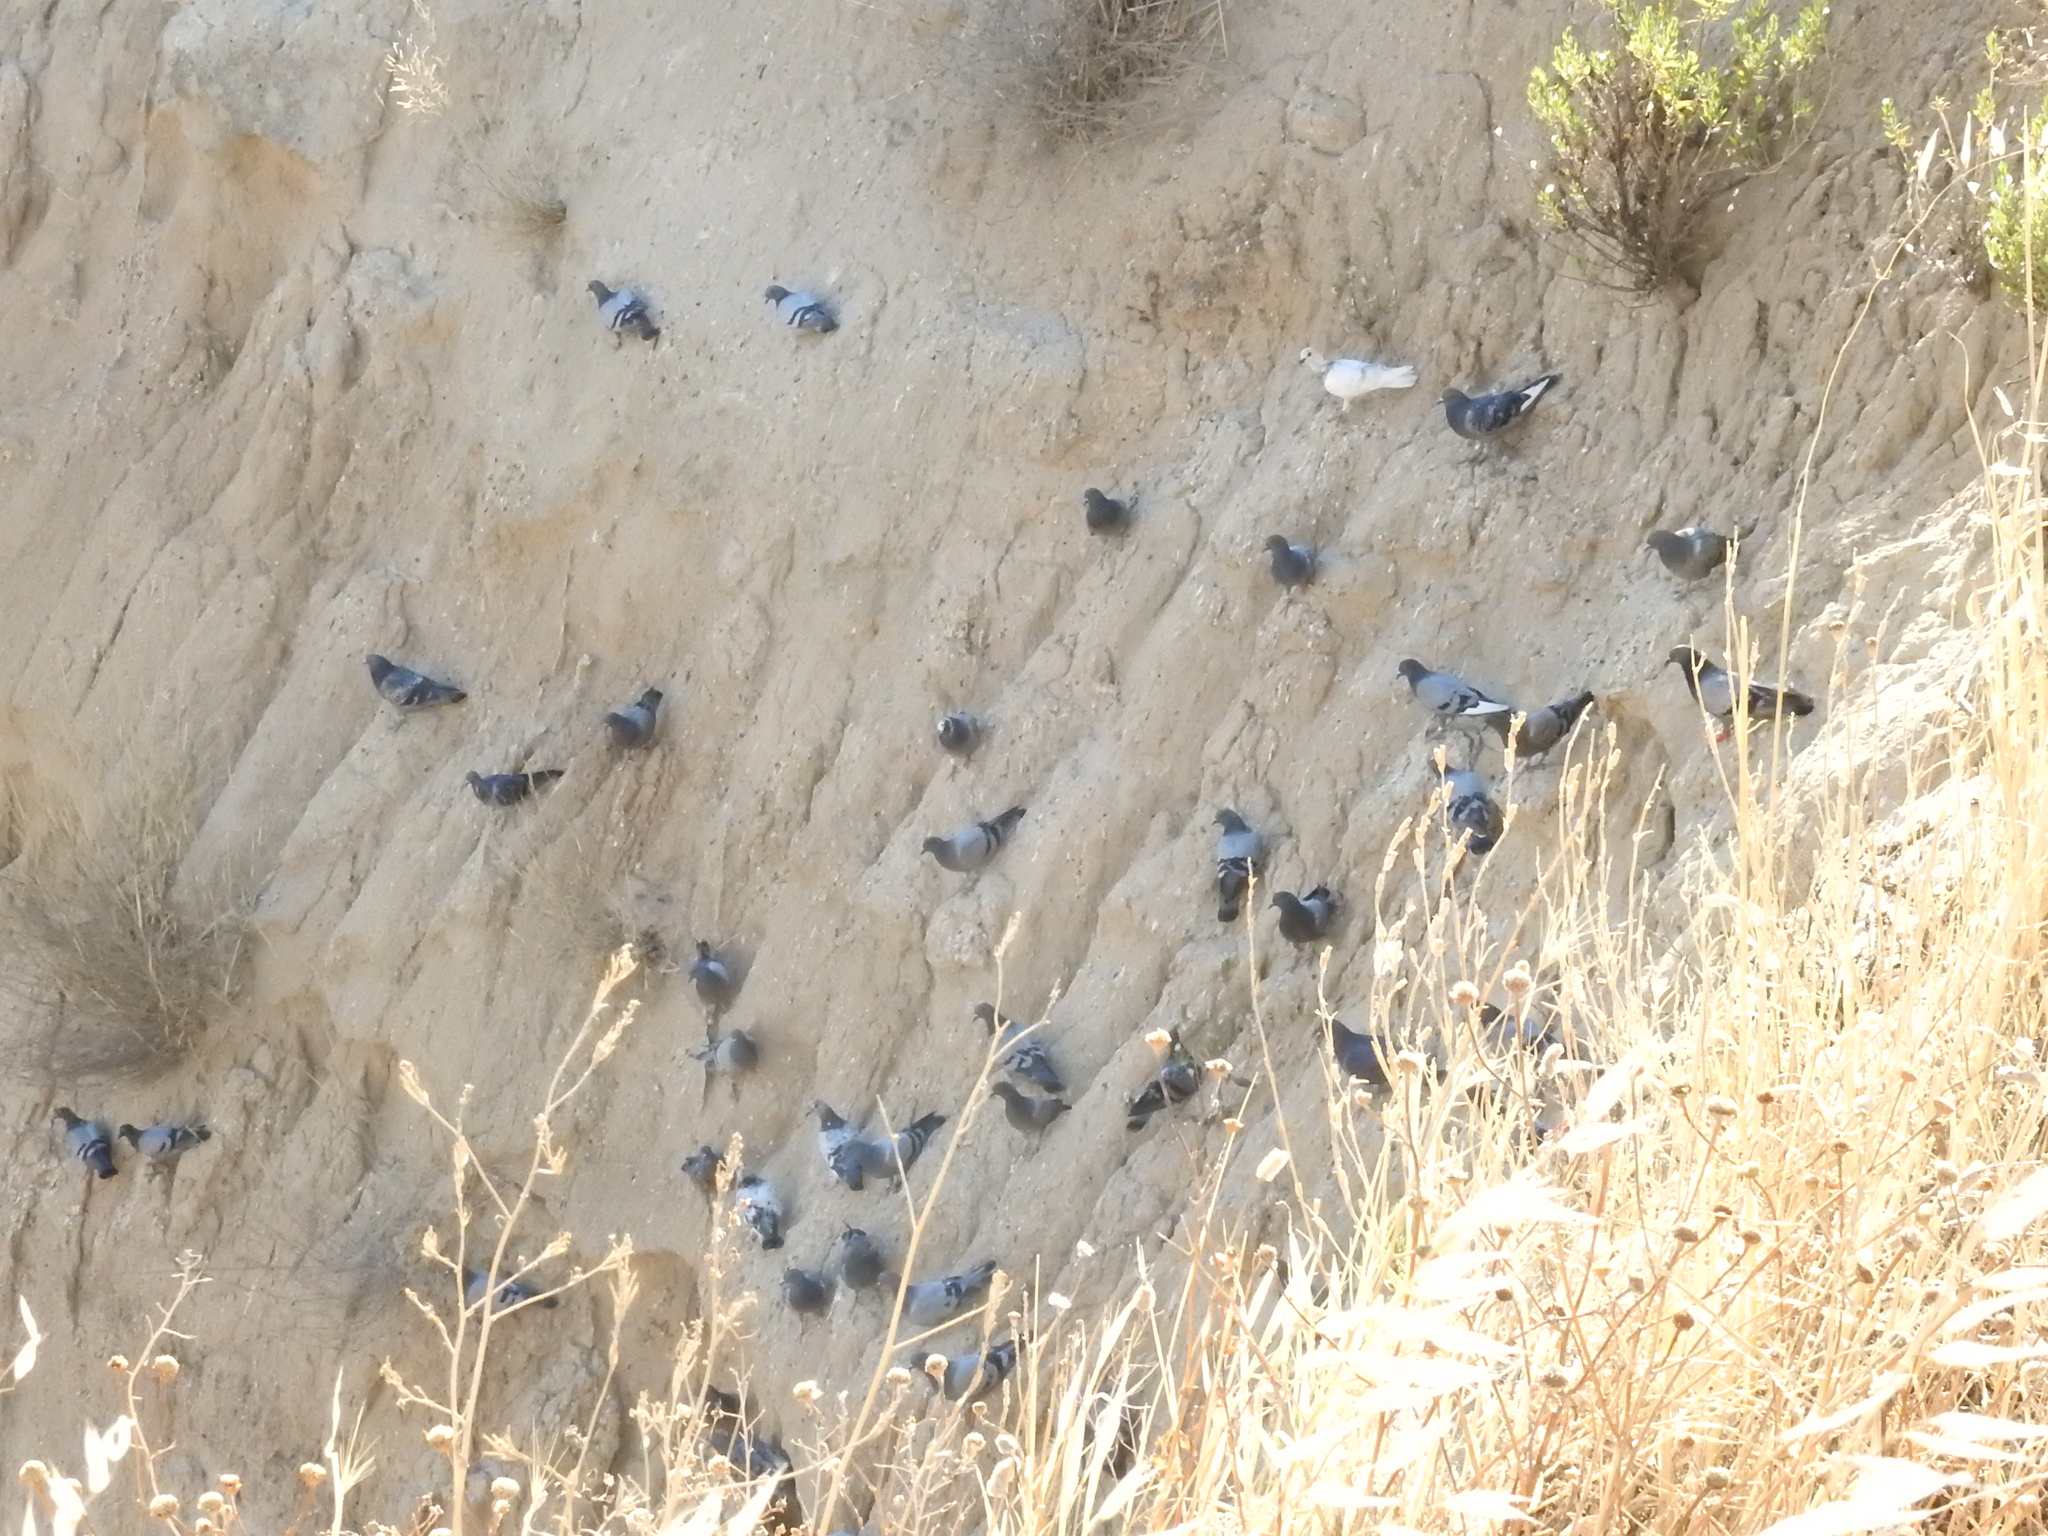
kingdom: Animalia
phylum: Chordata
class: Aves
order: Columbiformes
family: Columbidae
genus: Columba
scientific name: Columba livia
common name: Rock pigeon
